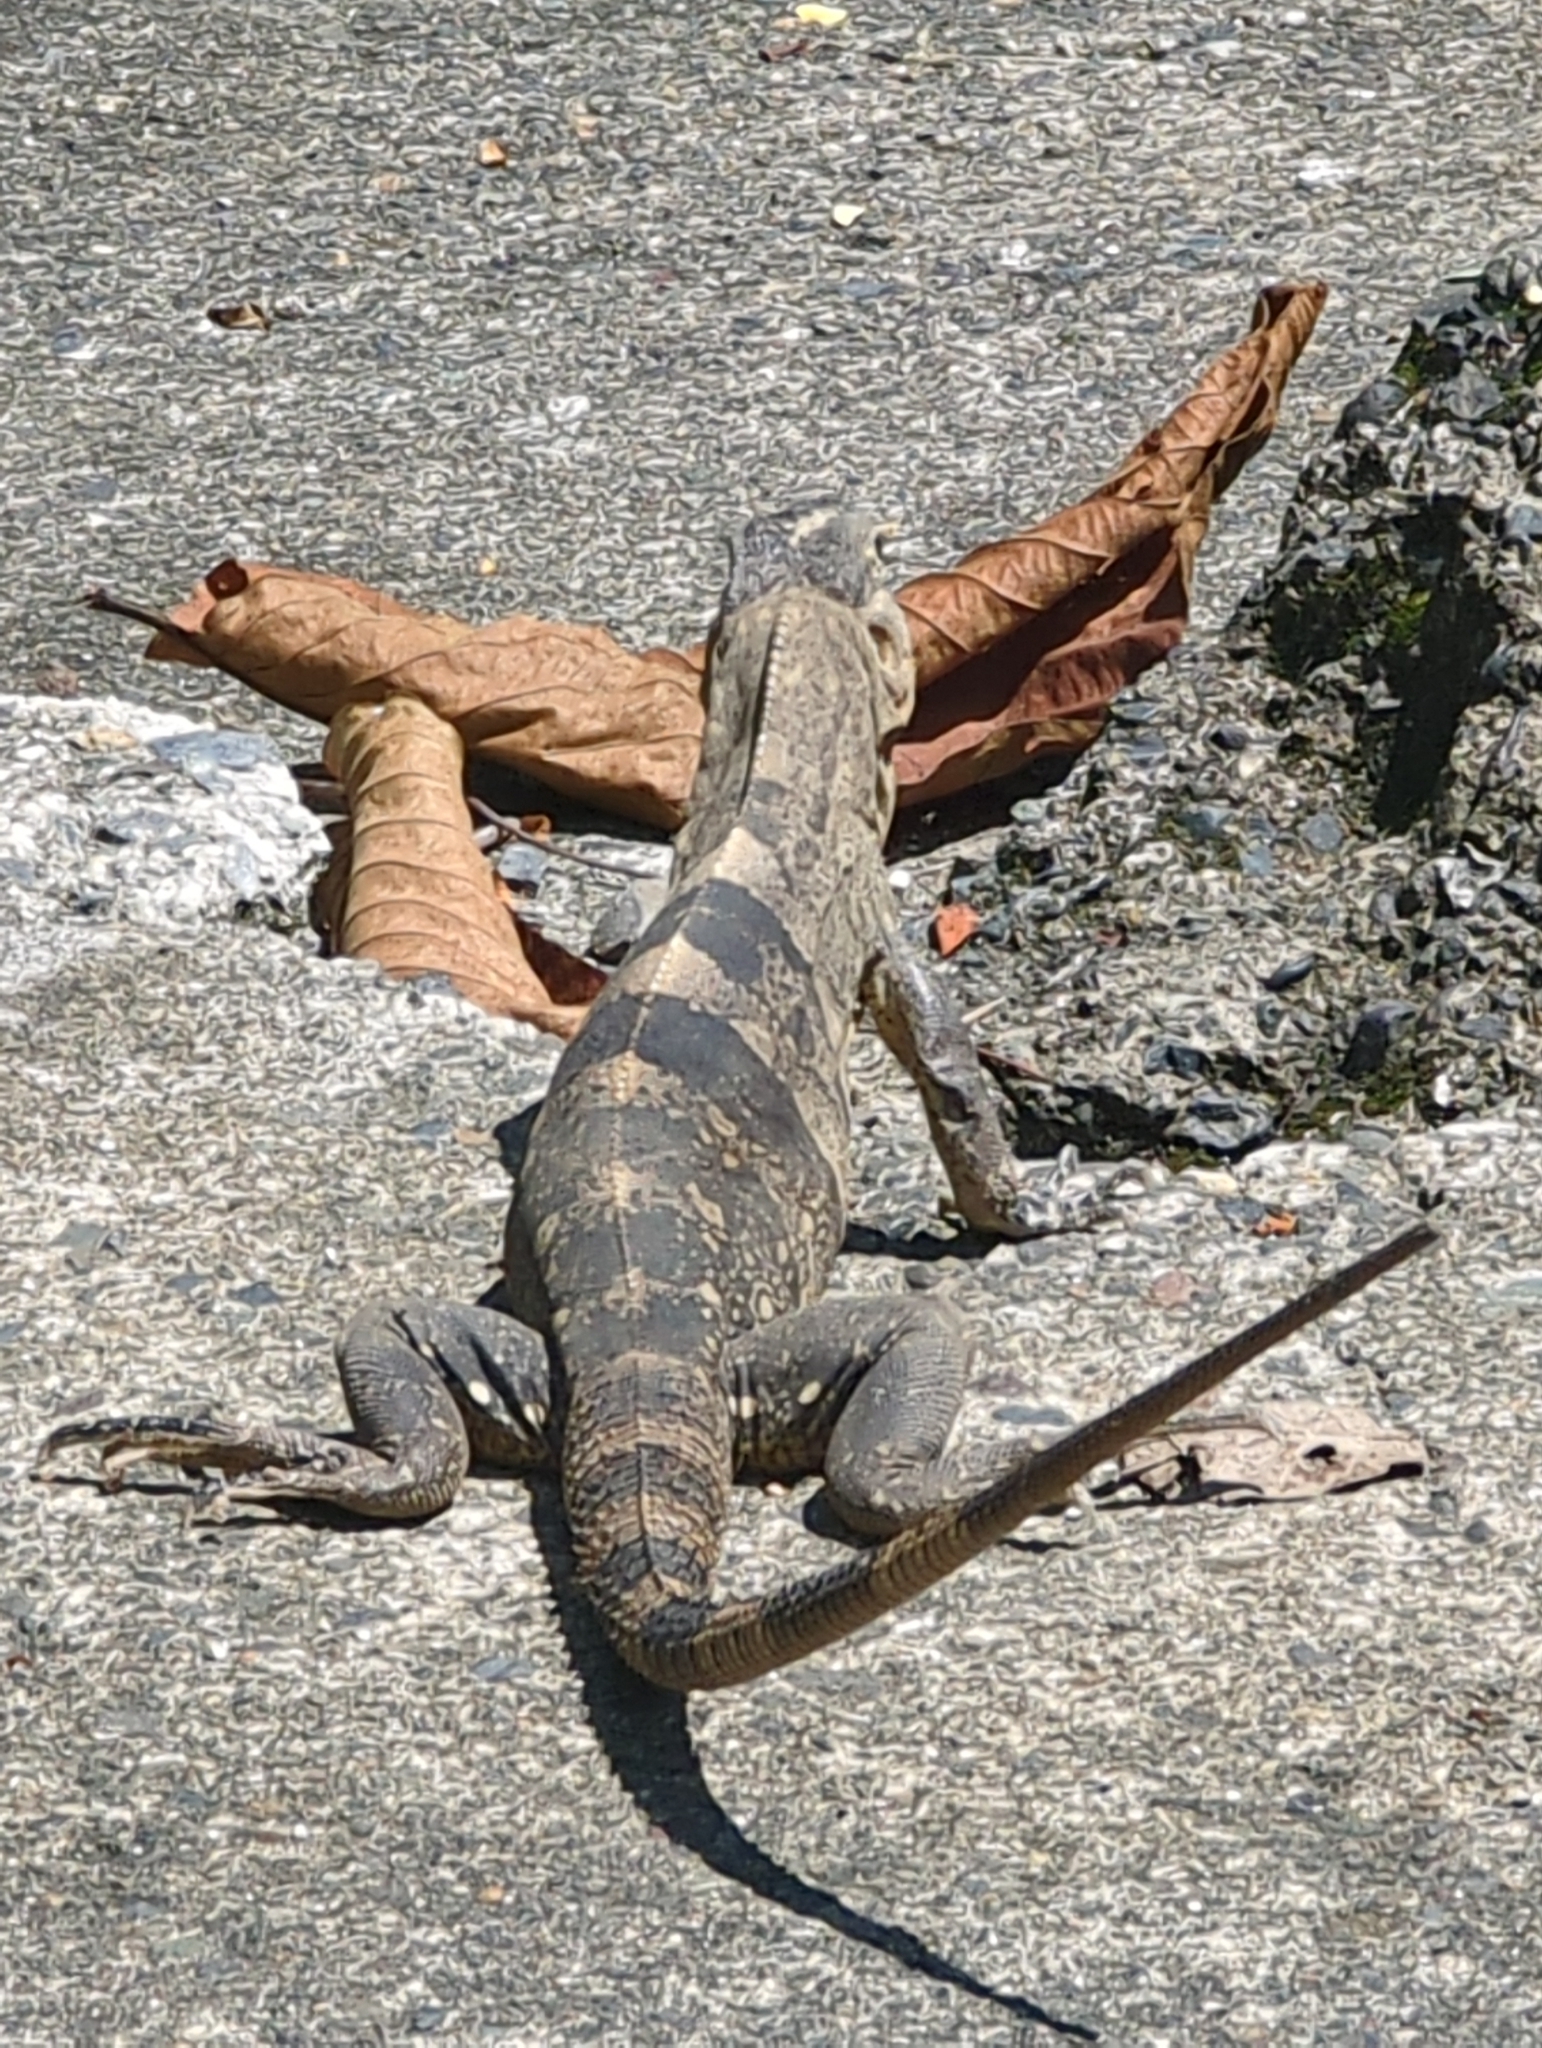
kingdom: Animalia
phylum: Chordata
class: Squamata
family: Iguanidae
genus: Ctenosaura
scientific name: Ctenosaura similis
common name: Black spiny-tailed iguana
